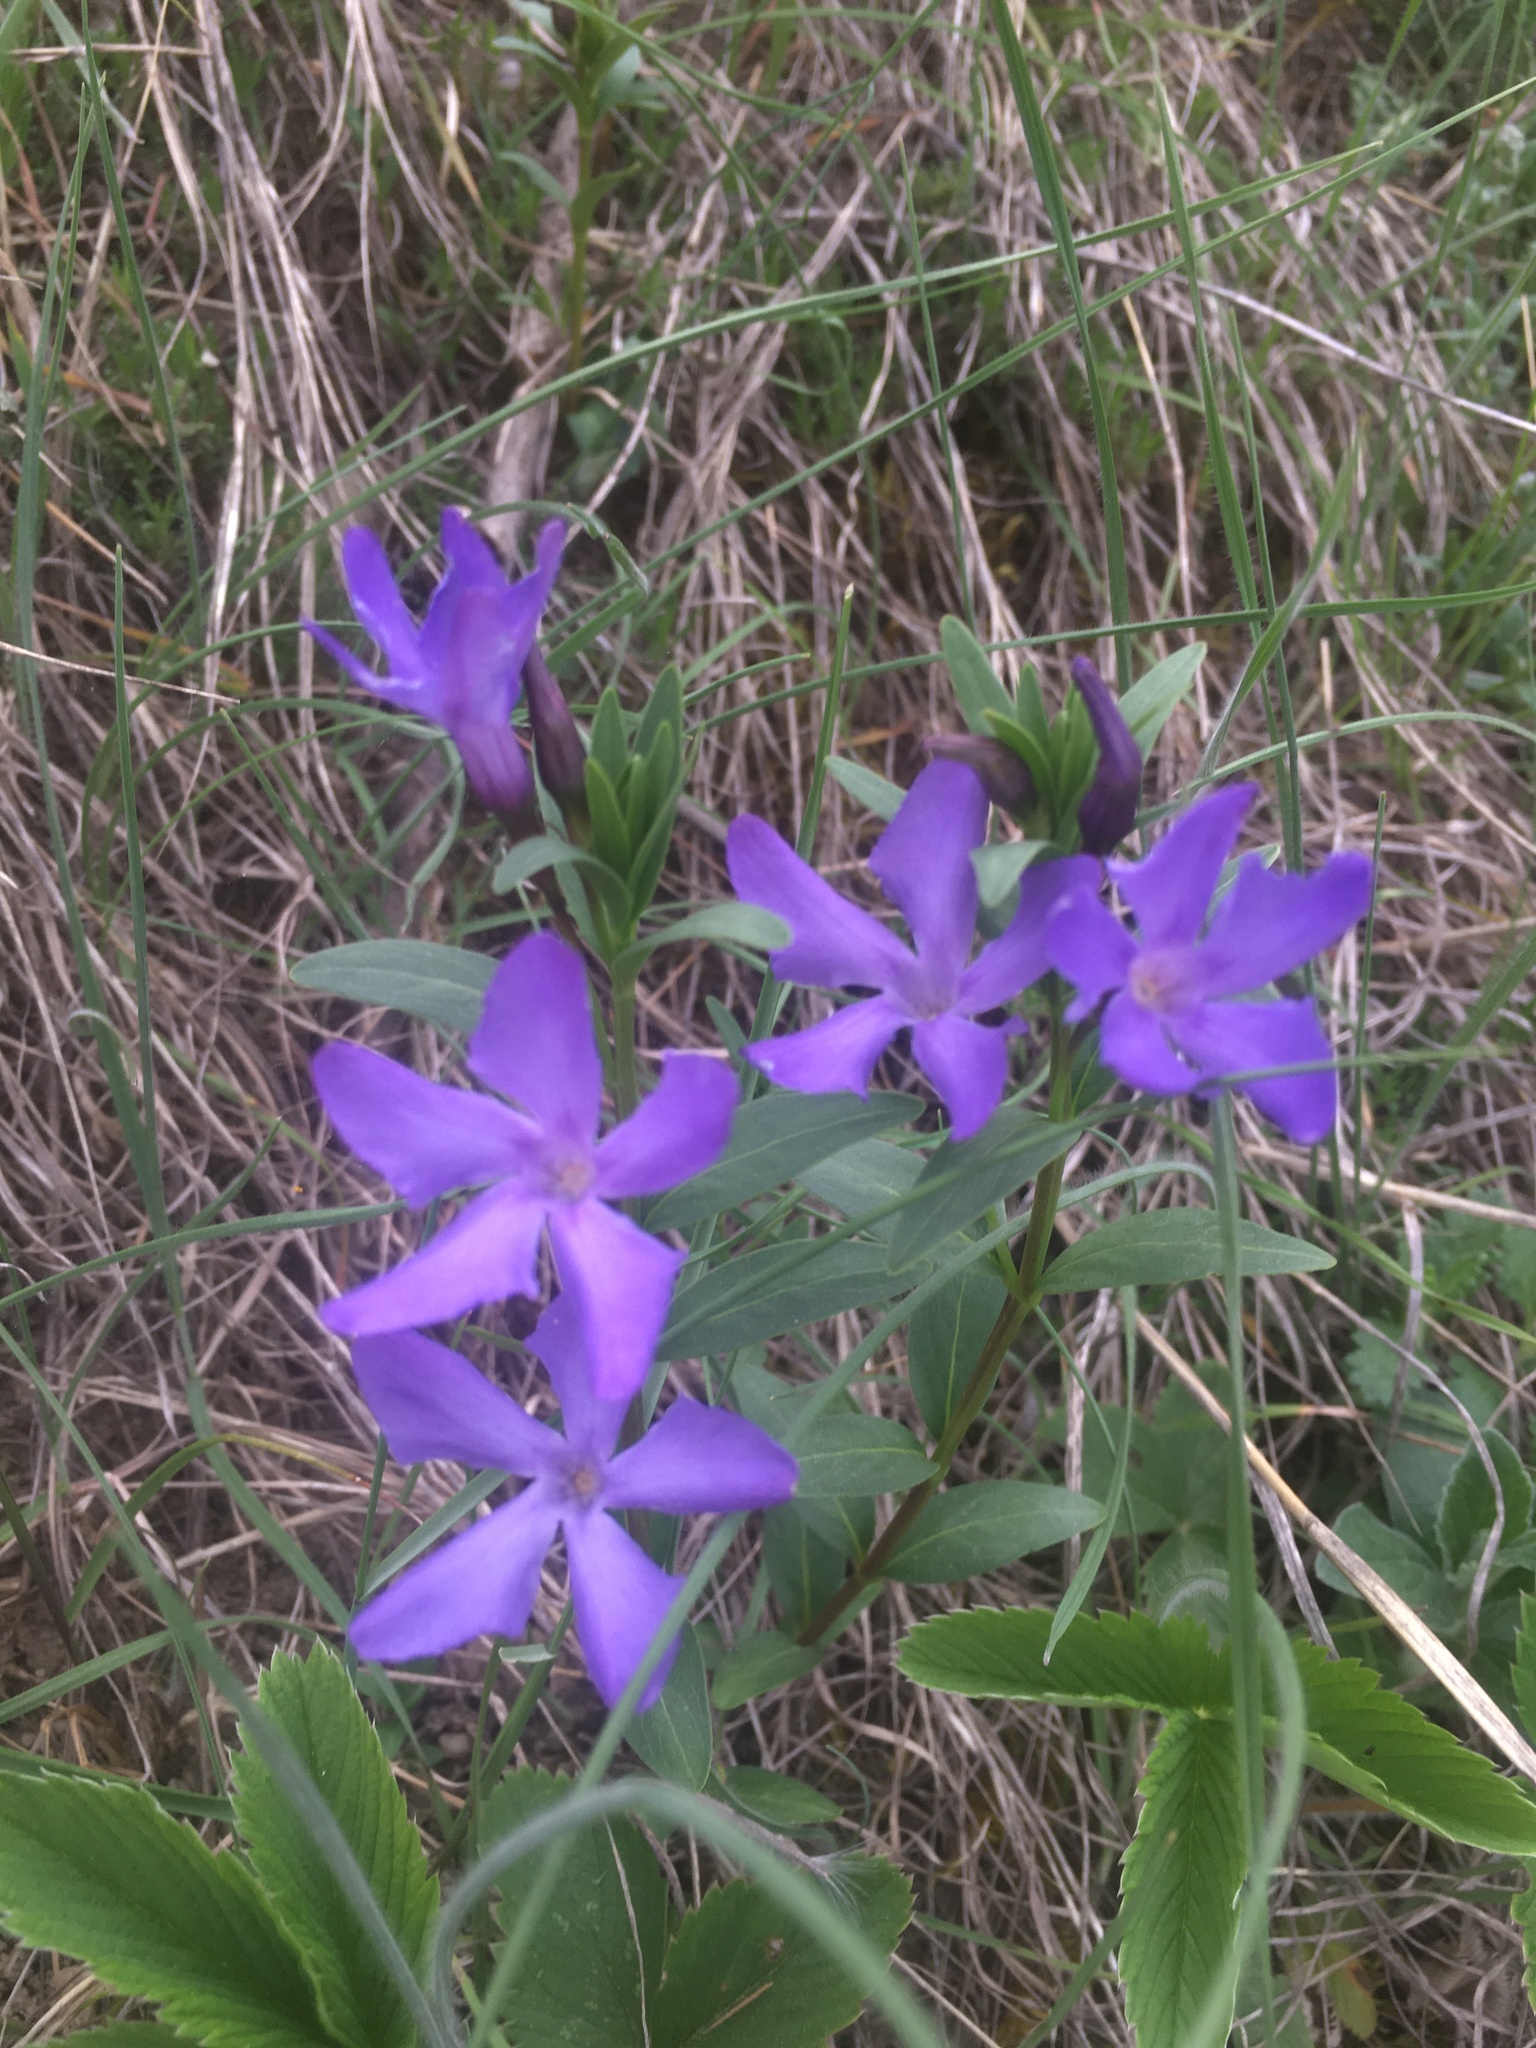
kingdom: Plantae
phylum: Tracheophyta
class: Magnoliopsida
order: Gentianales
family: Apocynaceae
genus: Vinca
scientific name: Vinca herbacea
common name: Herbaceous periwinkle
